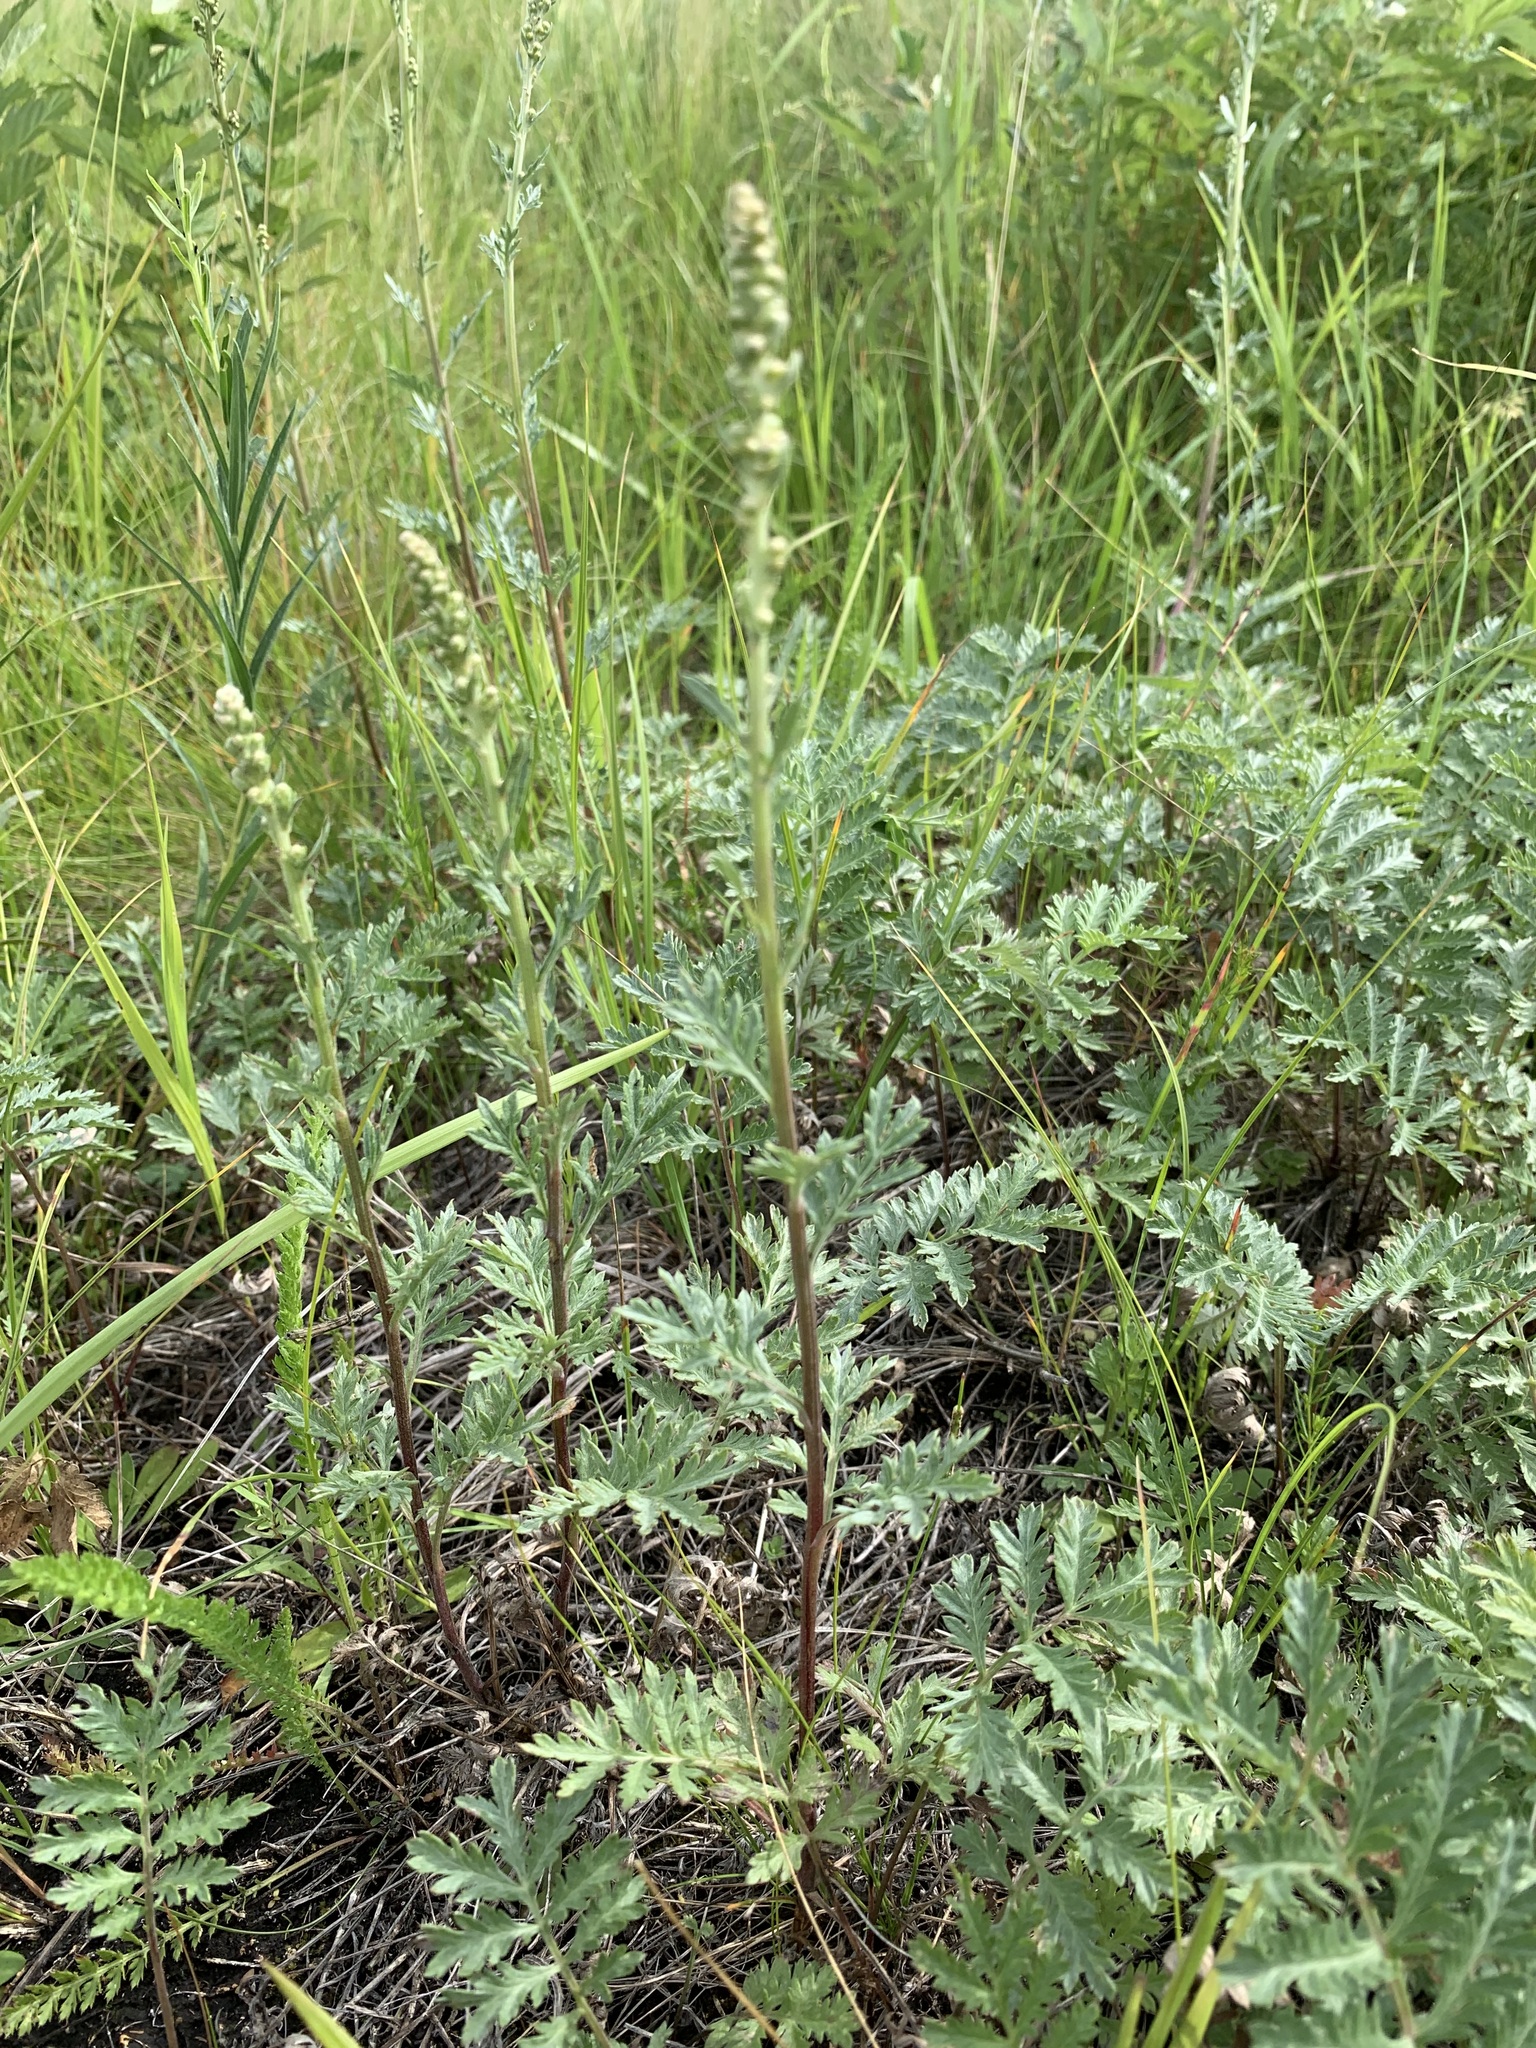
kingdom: Plantae
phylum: Tracheophyta
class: Magnoliopsida
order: Asterales
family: Asteraceae
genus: Artemisia
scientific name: Artemisia tanacetifolia
